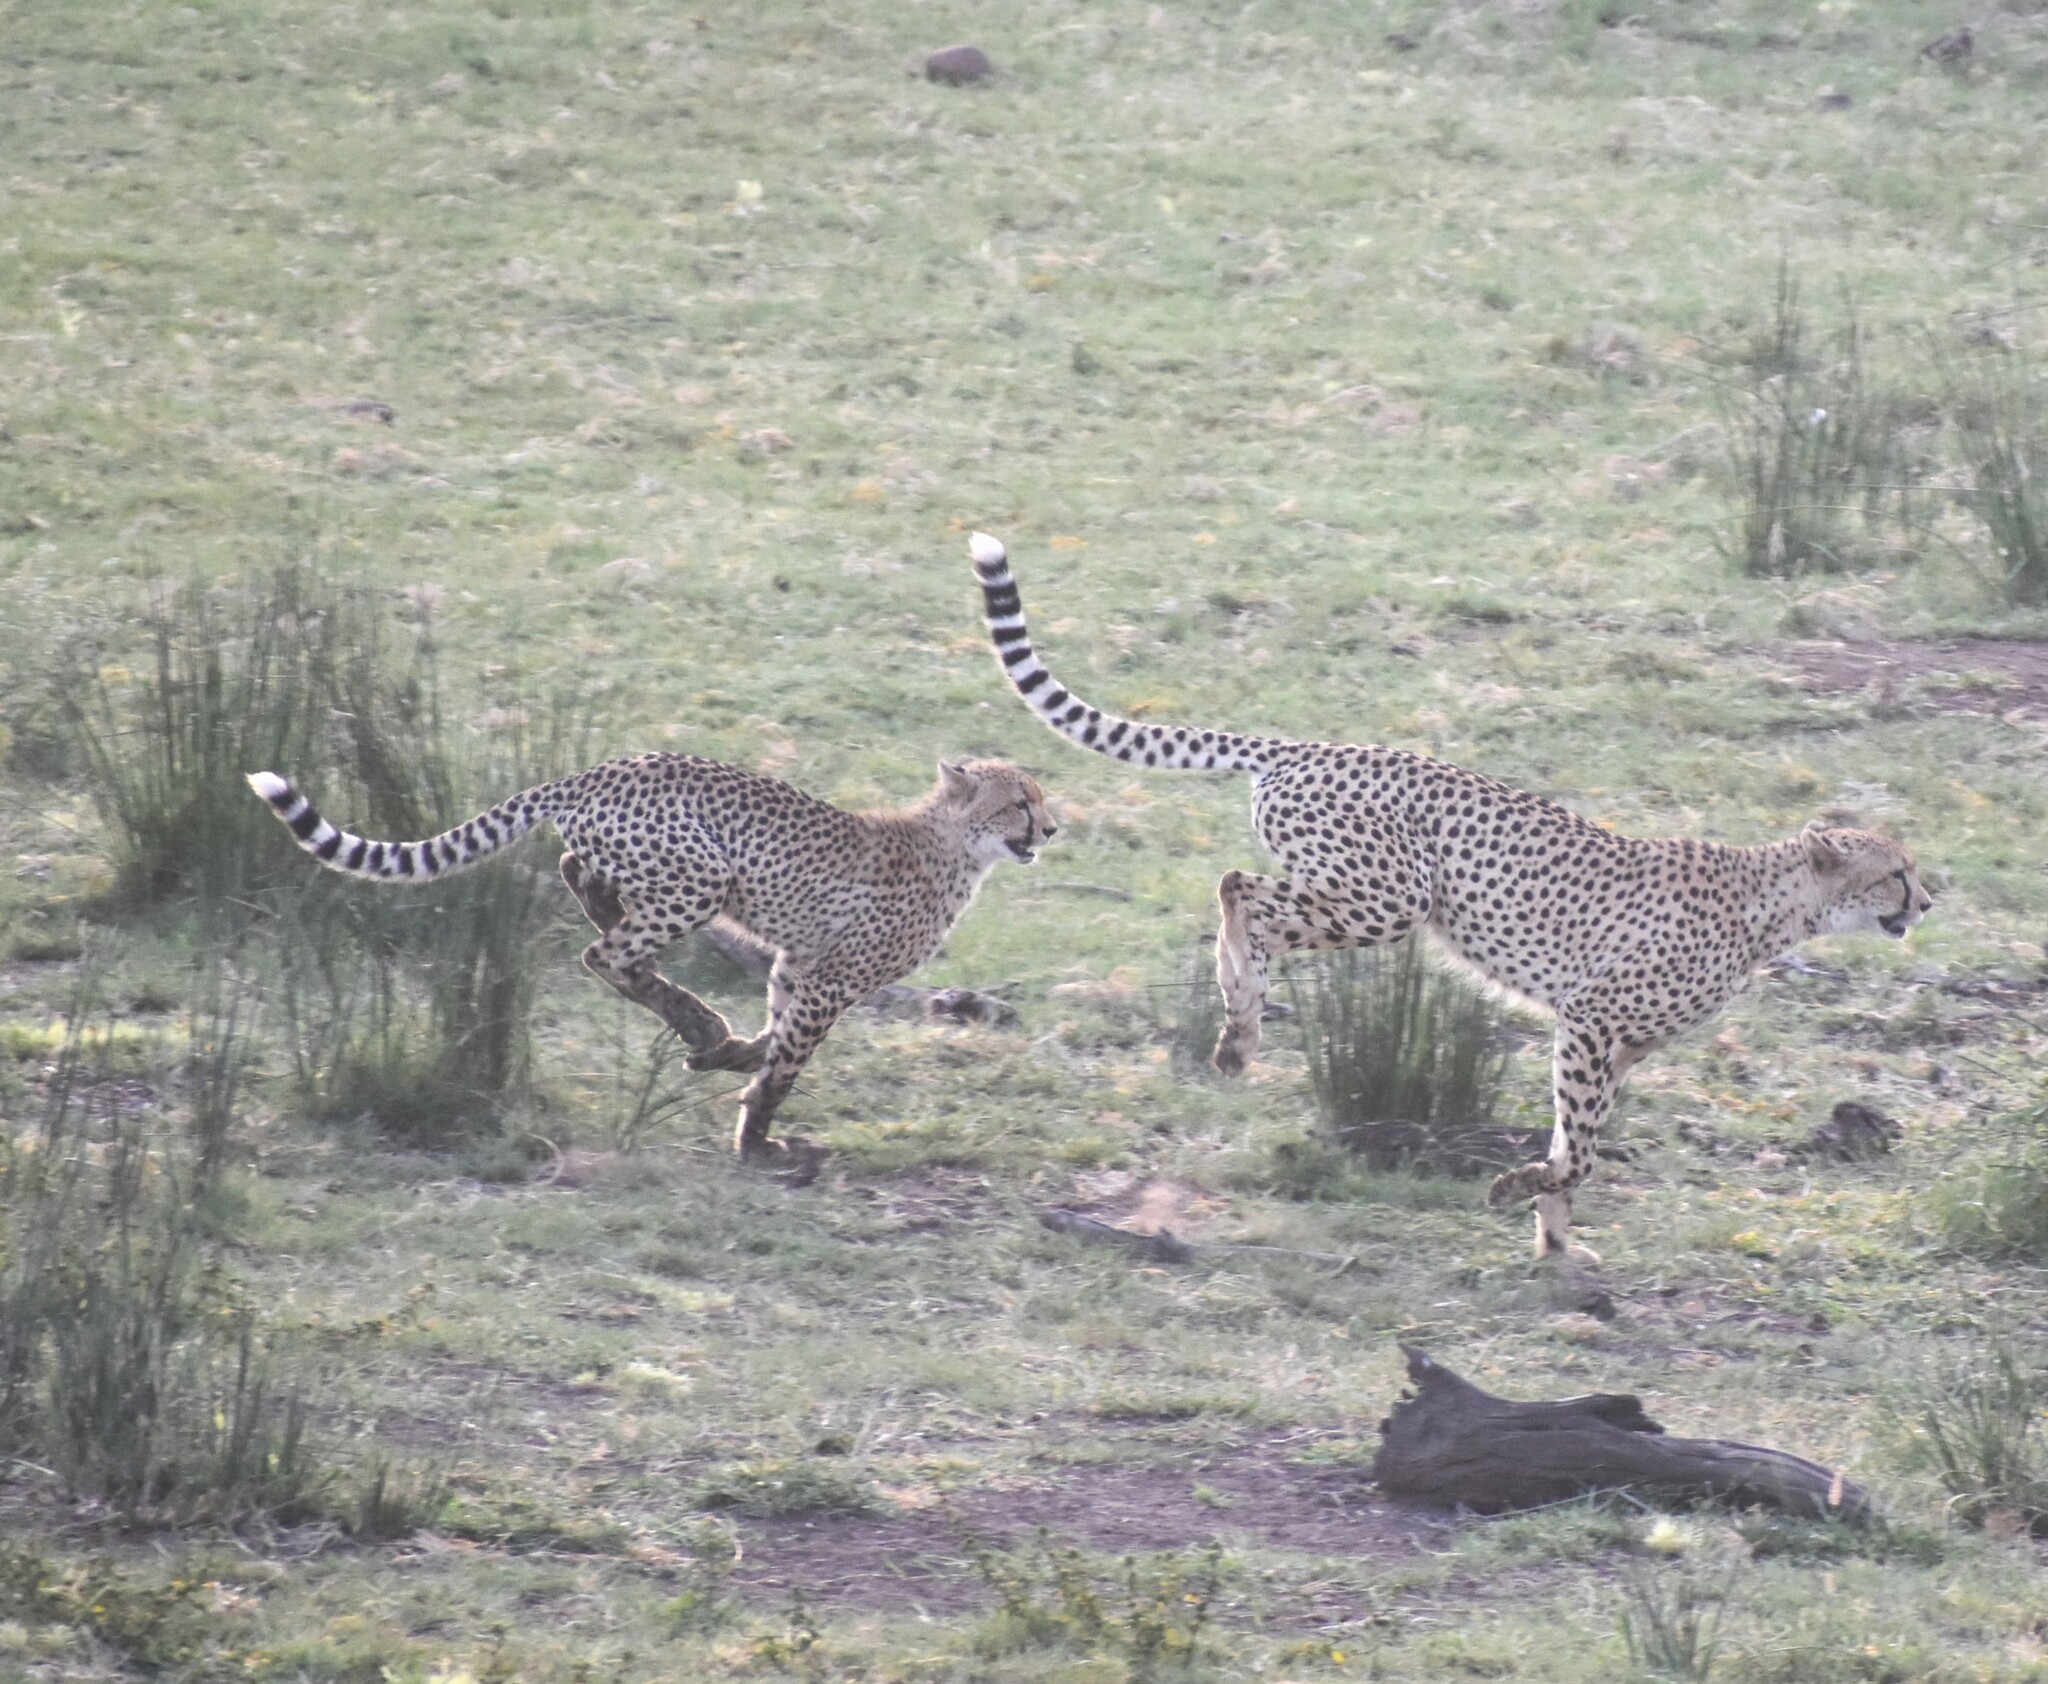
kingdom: Animalia
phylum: Chordata
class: Mammalia
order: Carnivora
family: Felidae
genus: Acinonyx
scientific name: Acinonyx jubatus
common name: Cheetah
